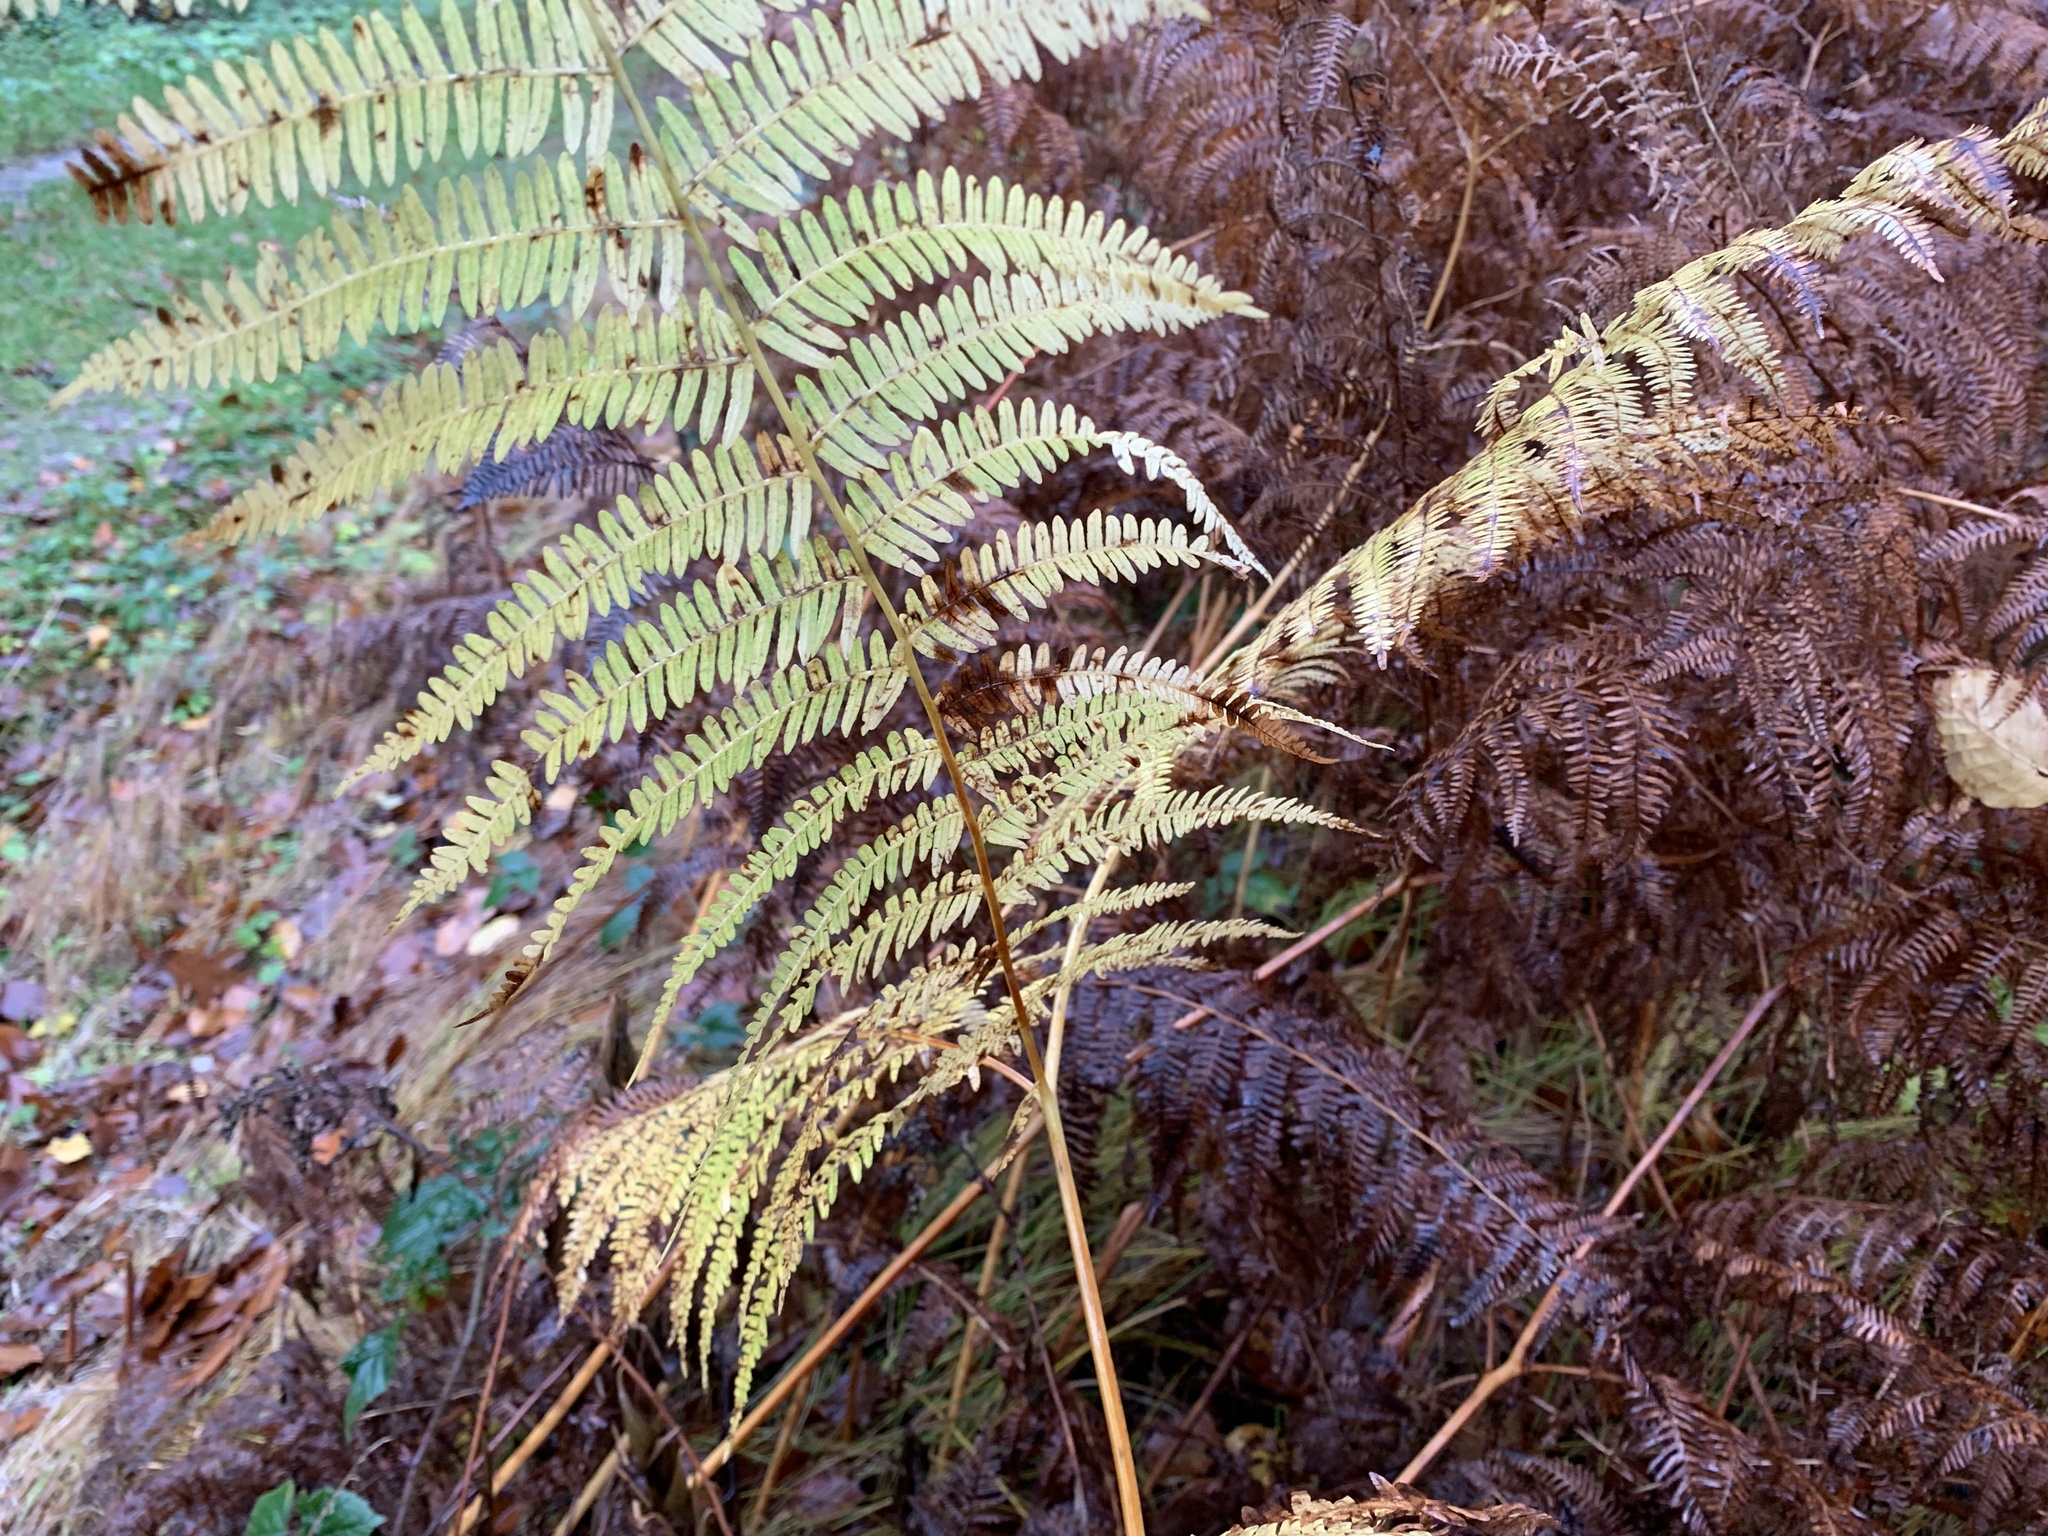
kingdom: Plantae
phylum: Tracheophyta
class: Polypodiopsida
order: Polypodiales
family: Dennstaedtiaceae
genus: Pteridium
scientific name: Pteridium aquilinum
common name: Bracken
